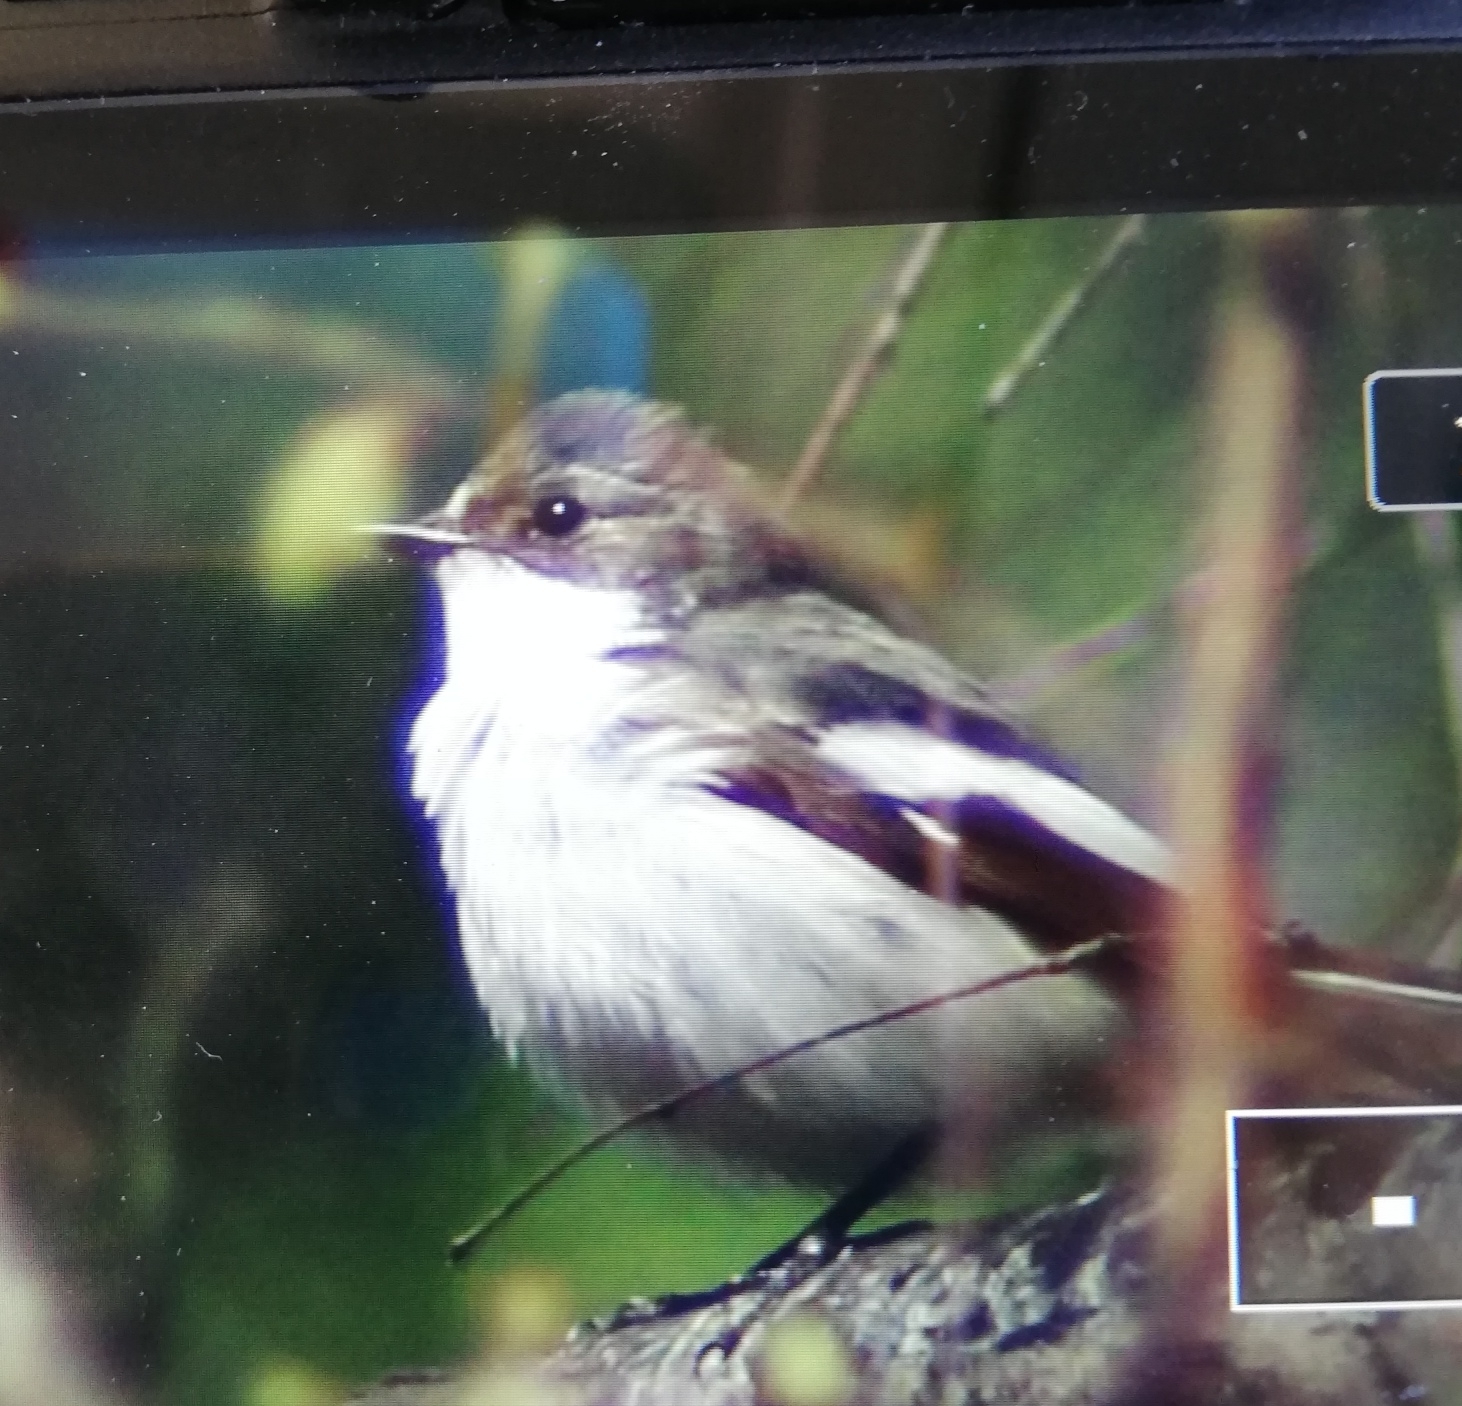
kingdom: Animalia
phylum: Chordata
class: Aves
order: Passeriformes
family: Muscicapidae
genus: Ficedula
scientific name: Ficedula hypoleuca
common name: European pied flycatcher
